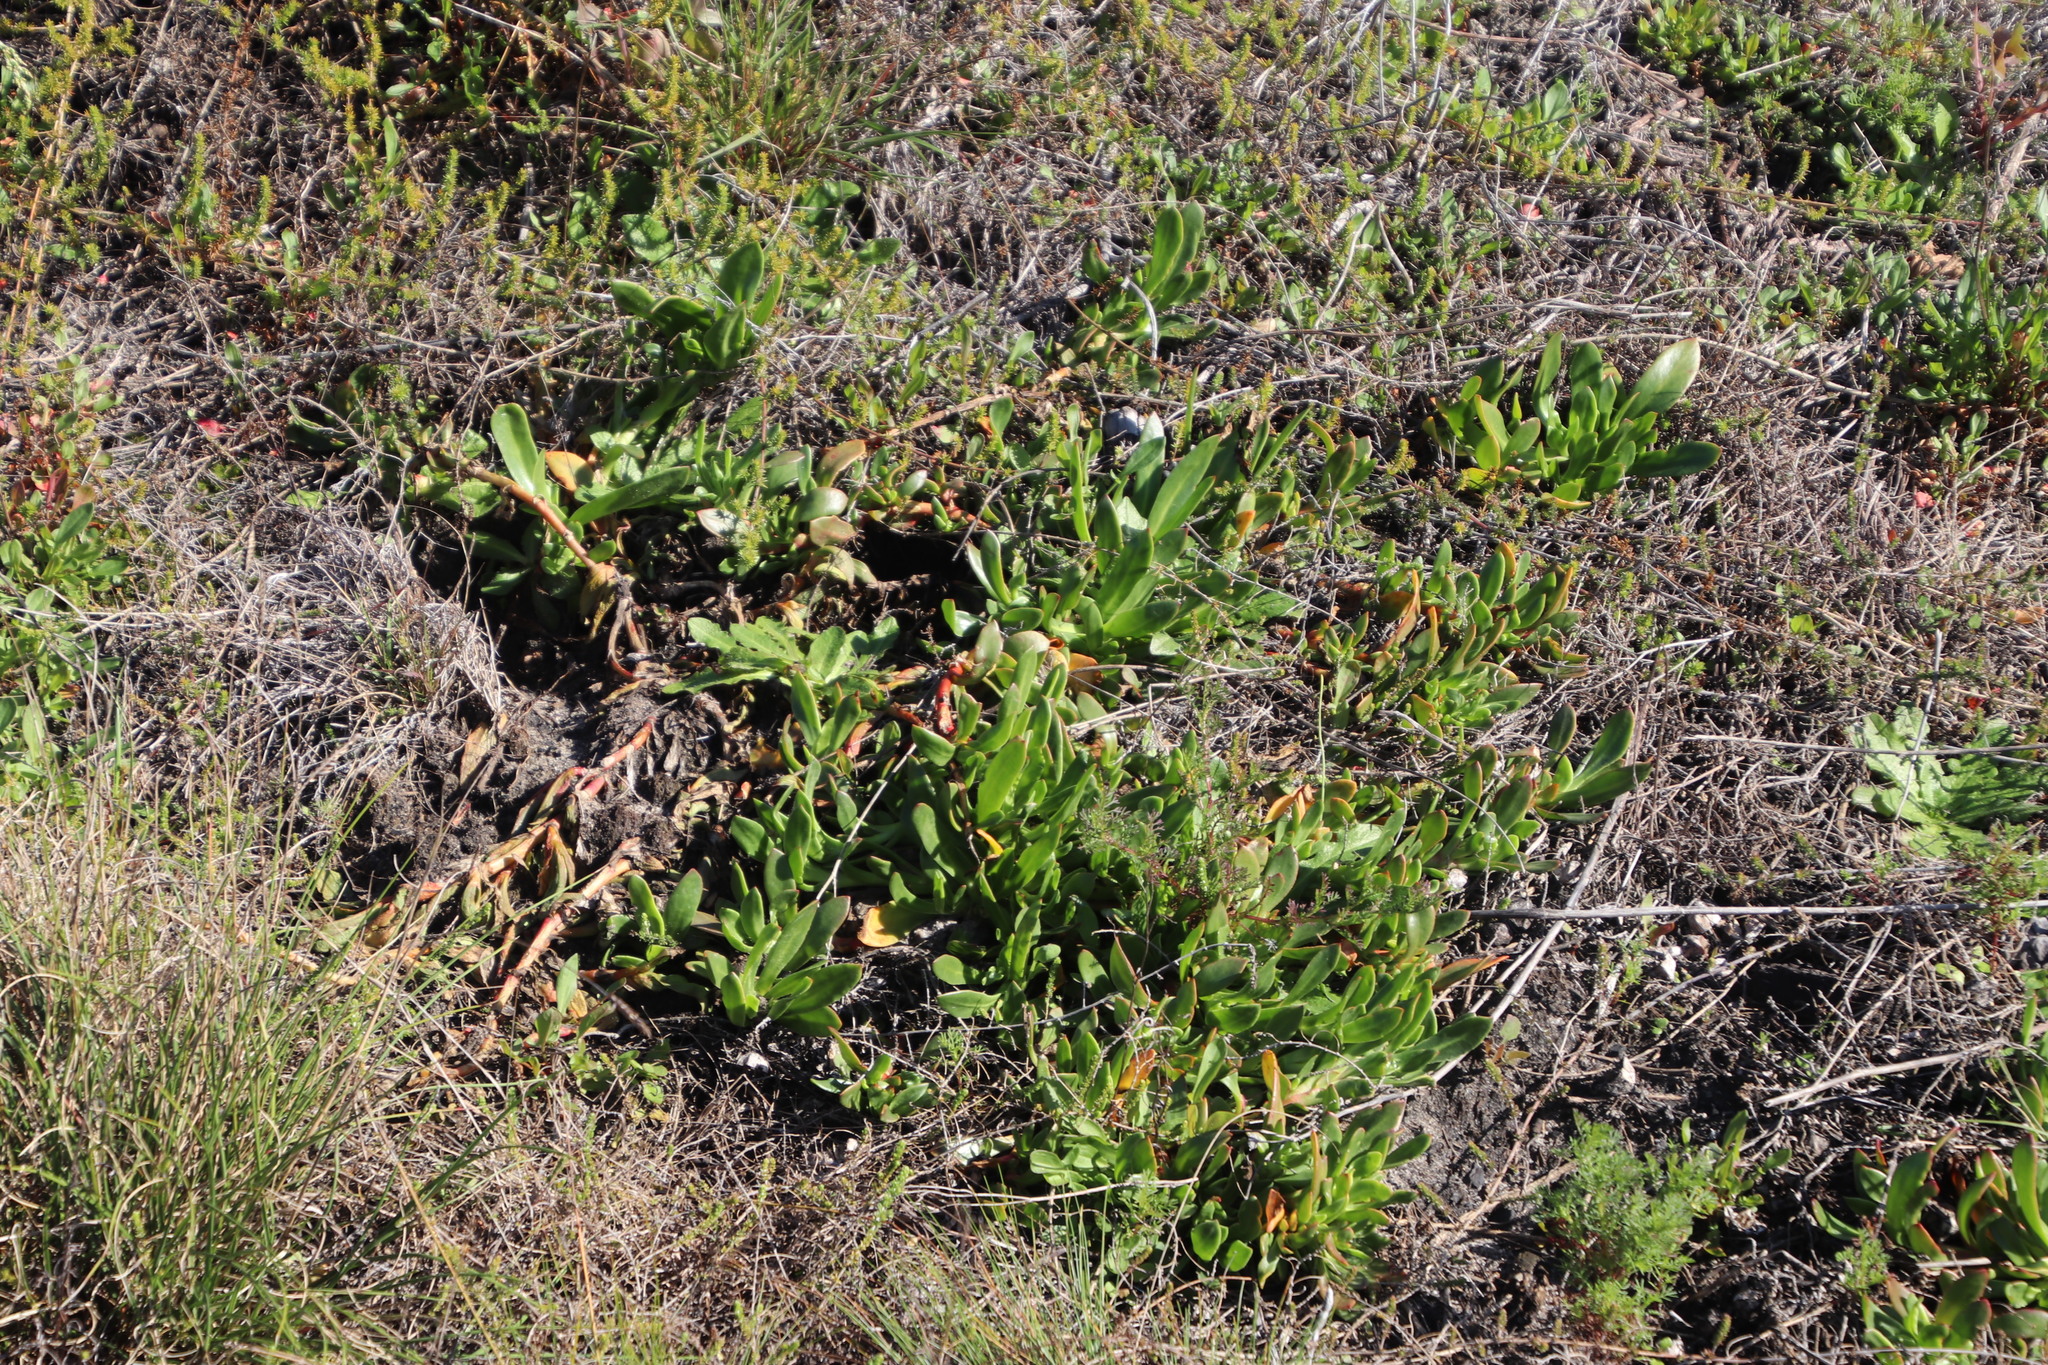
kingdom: Plantae
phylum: Tracheophyta
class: Magnoliopsida
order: Caryophyllales
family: Aizoaceae
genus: Skiatophytum
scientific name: Skiatophytum tripolium
